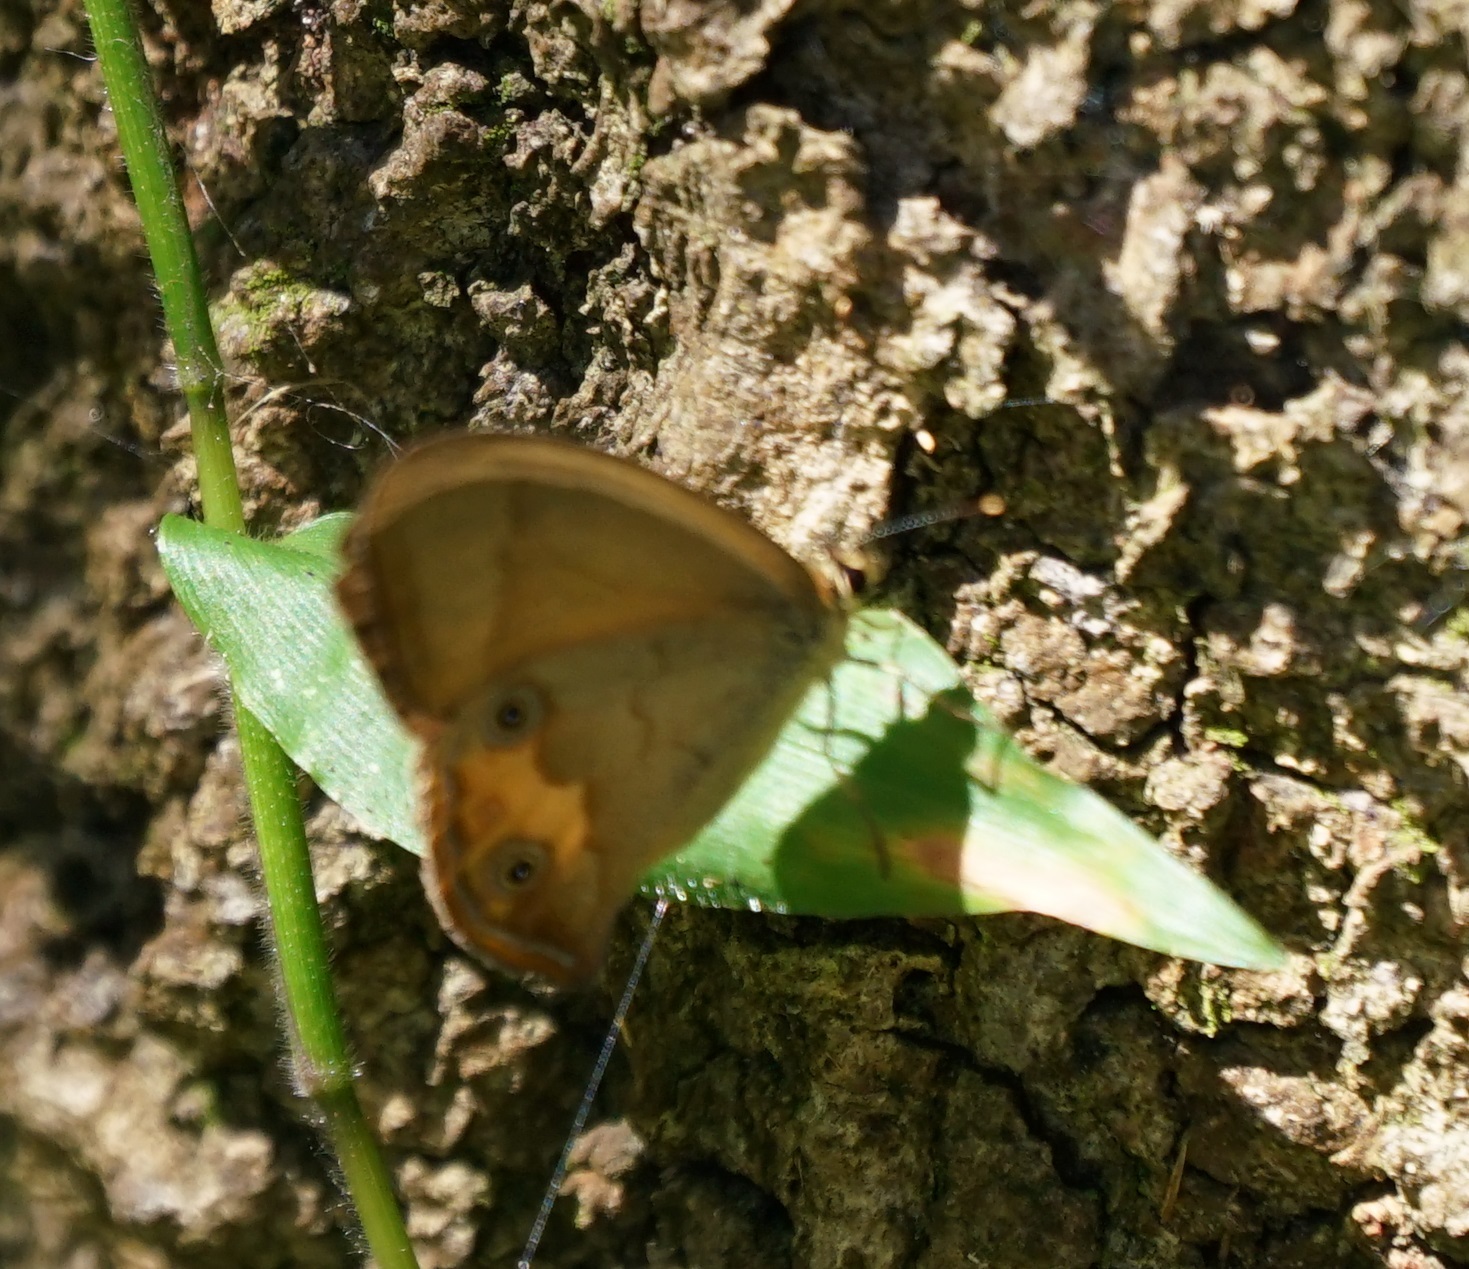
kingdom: Animalia
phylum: Arthropoda
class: Insecta
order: Lepidoptera
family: Nymphalidae
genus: Hypocysta
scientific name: Hypocysta metirius
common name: Brown ringlet
